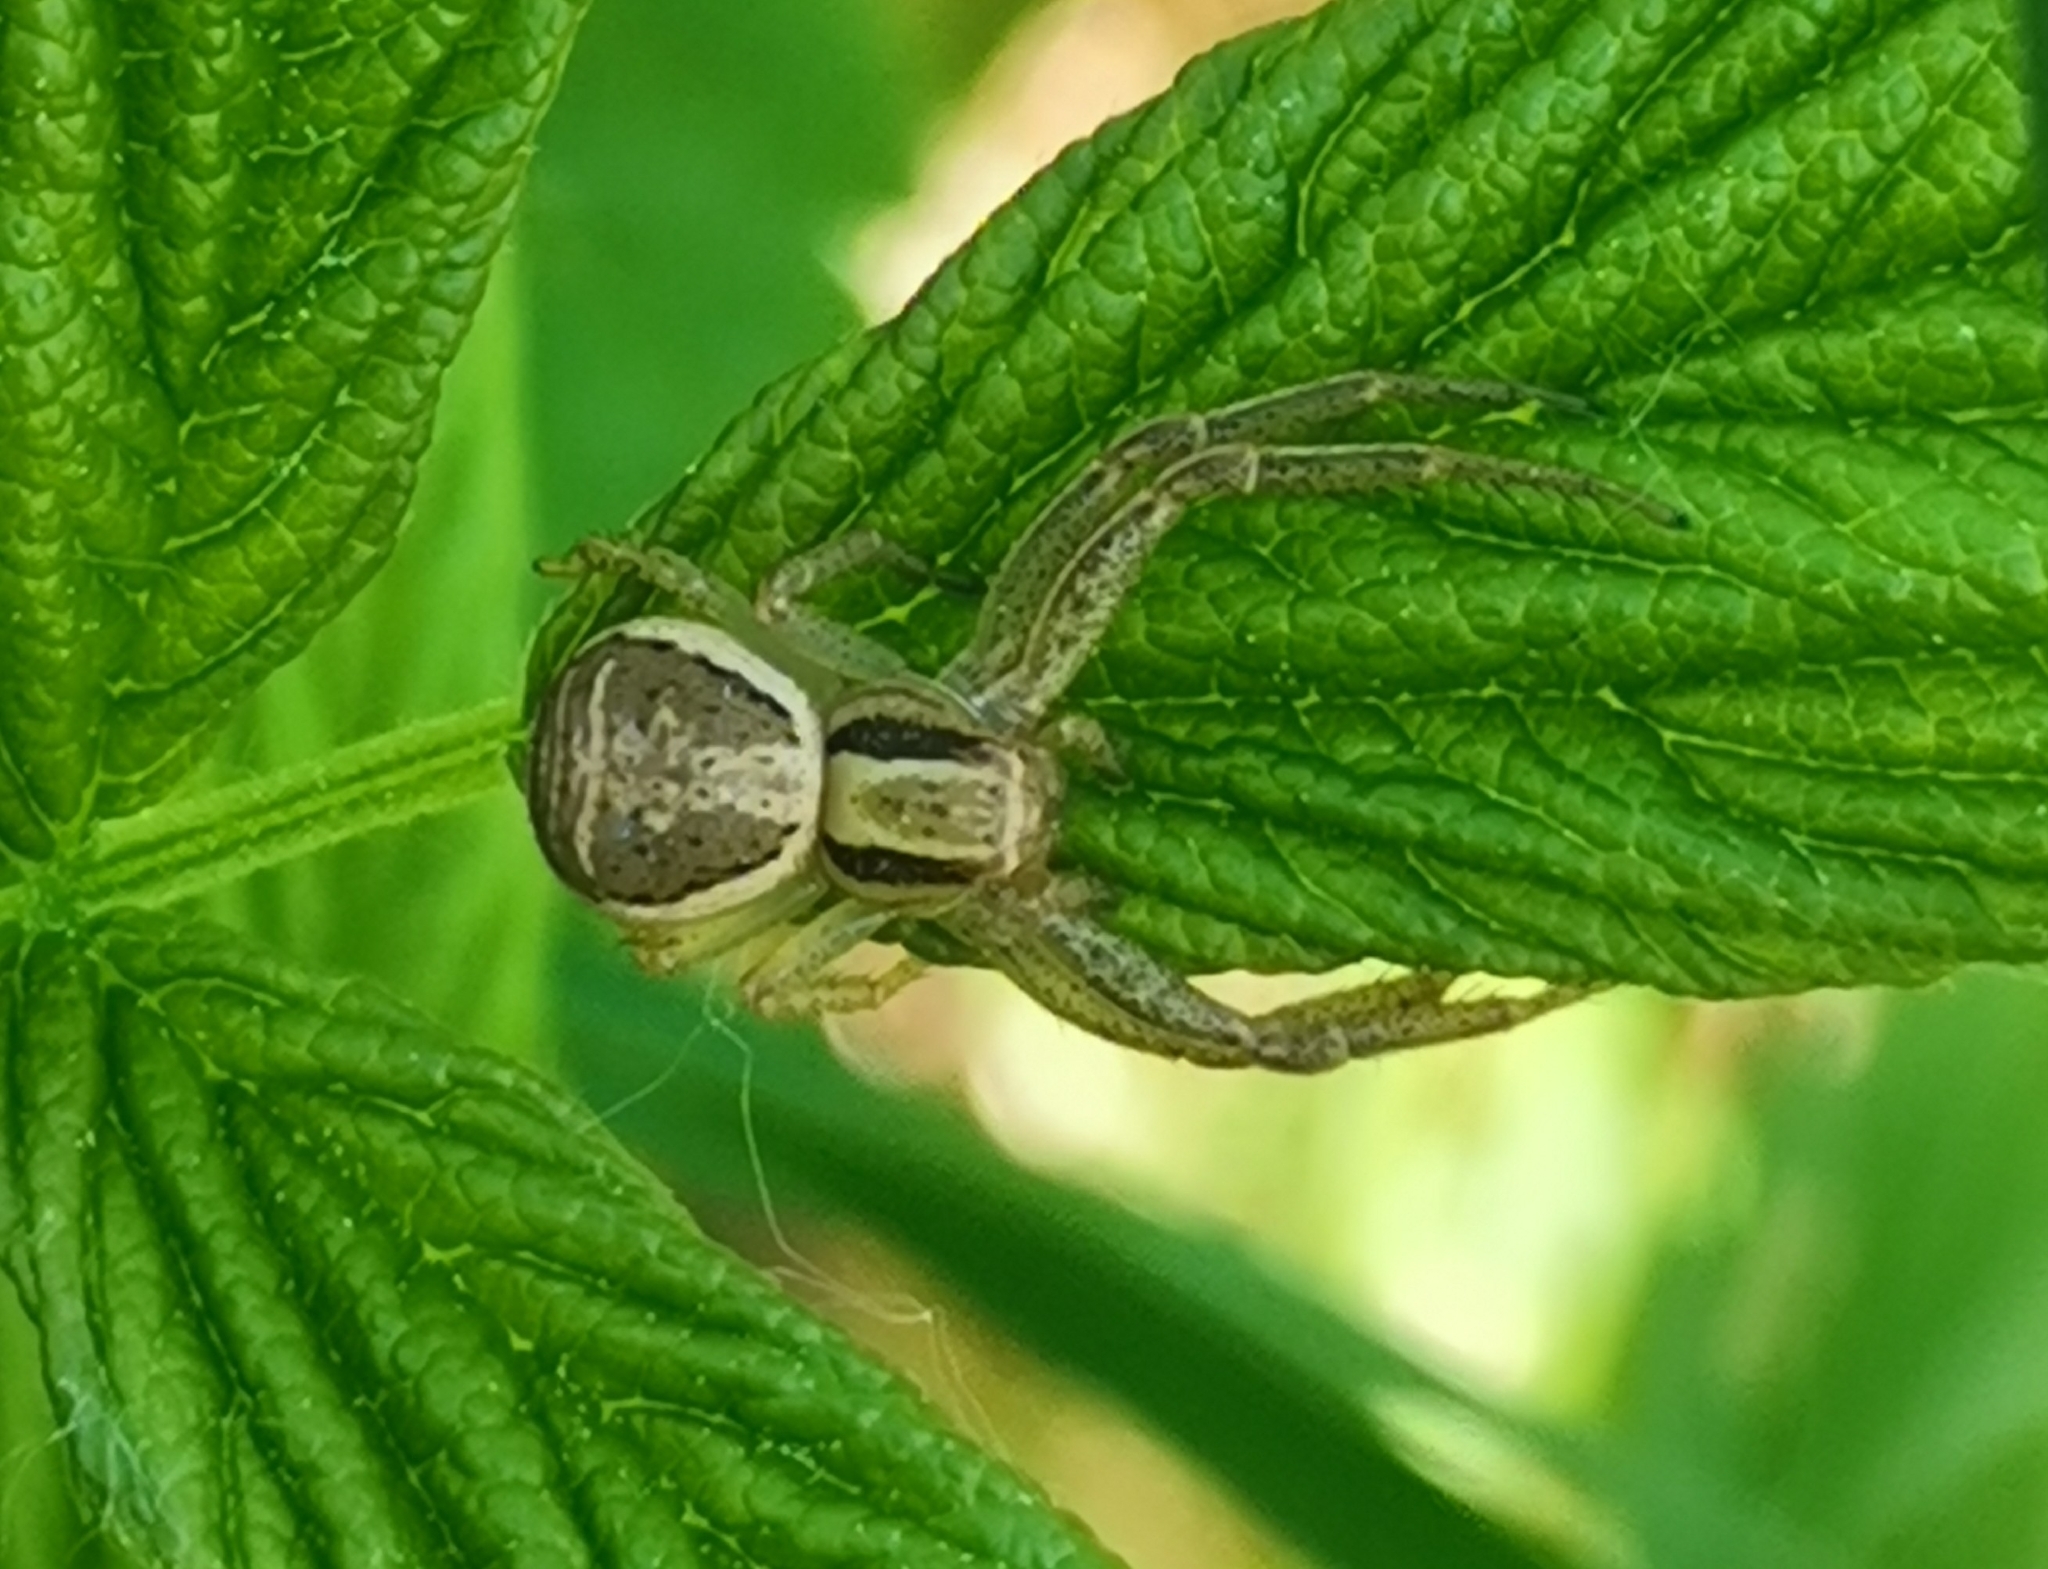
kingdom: Animalia
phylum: Arthropoda
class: Arachnida
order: Araneae
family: Thomisidae
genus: Xysticus
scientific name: Xysticus ulmi
